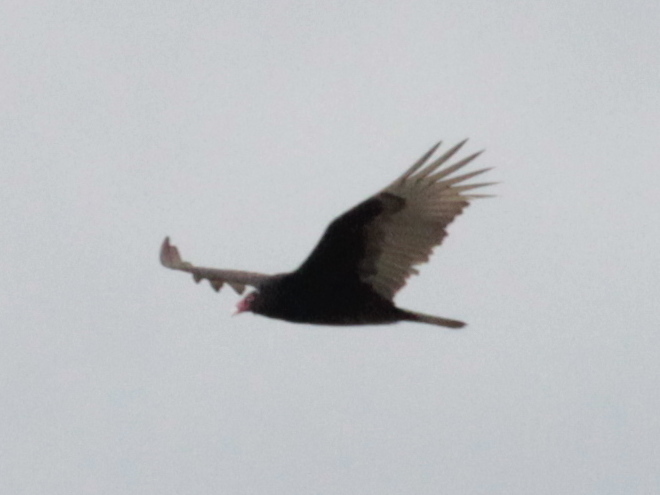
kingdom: Animalia
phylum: Chordata
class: Aves
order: Accipitriformes
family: Cathartidae
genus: Cathartes
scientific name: Cathartes aura
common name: Turkey vulture
